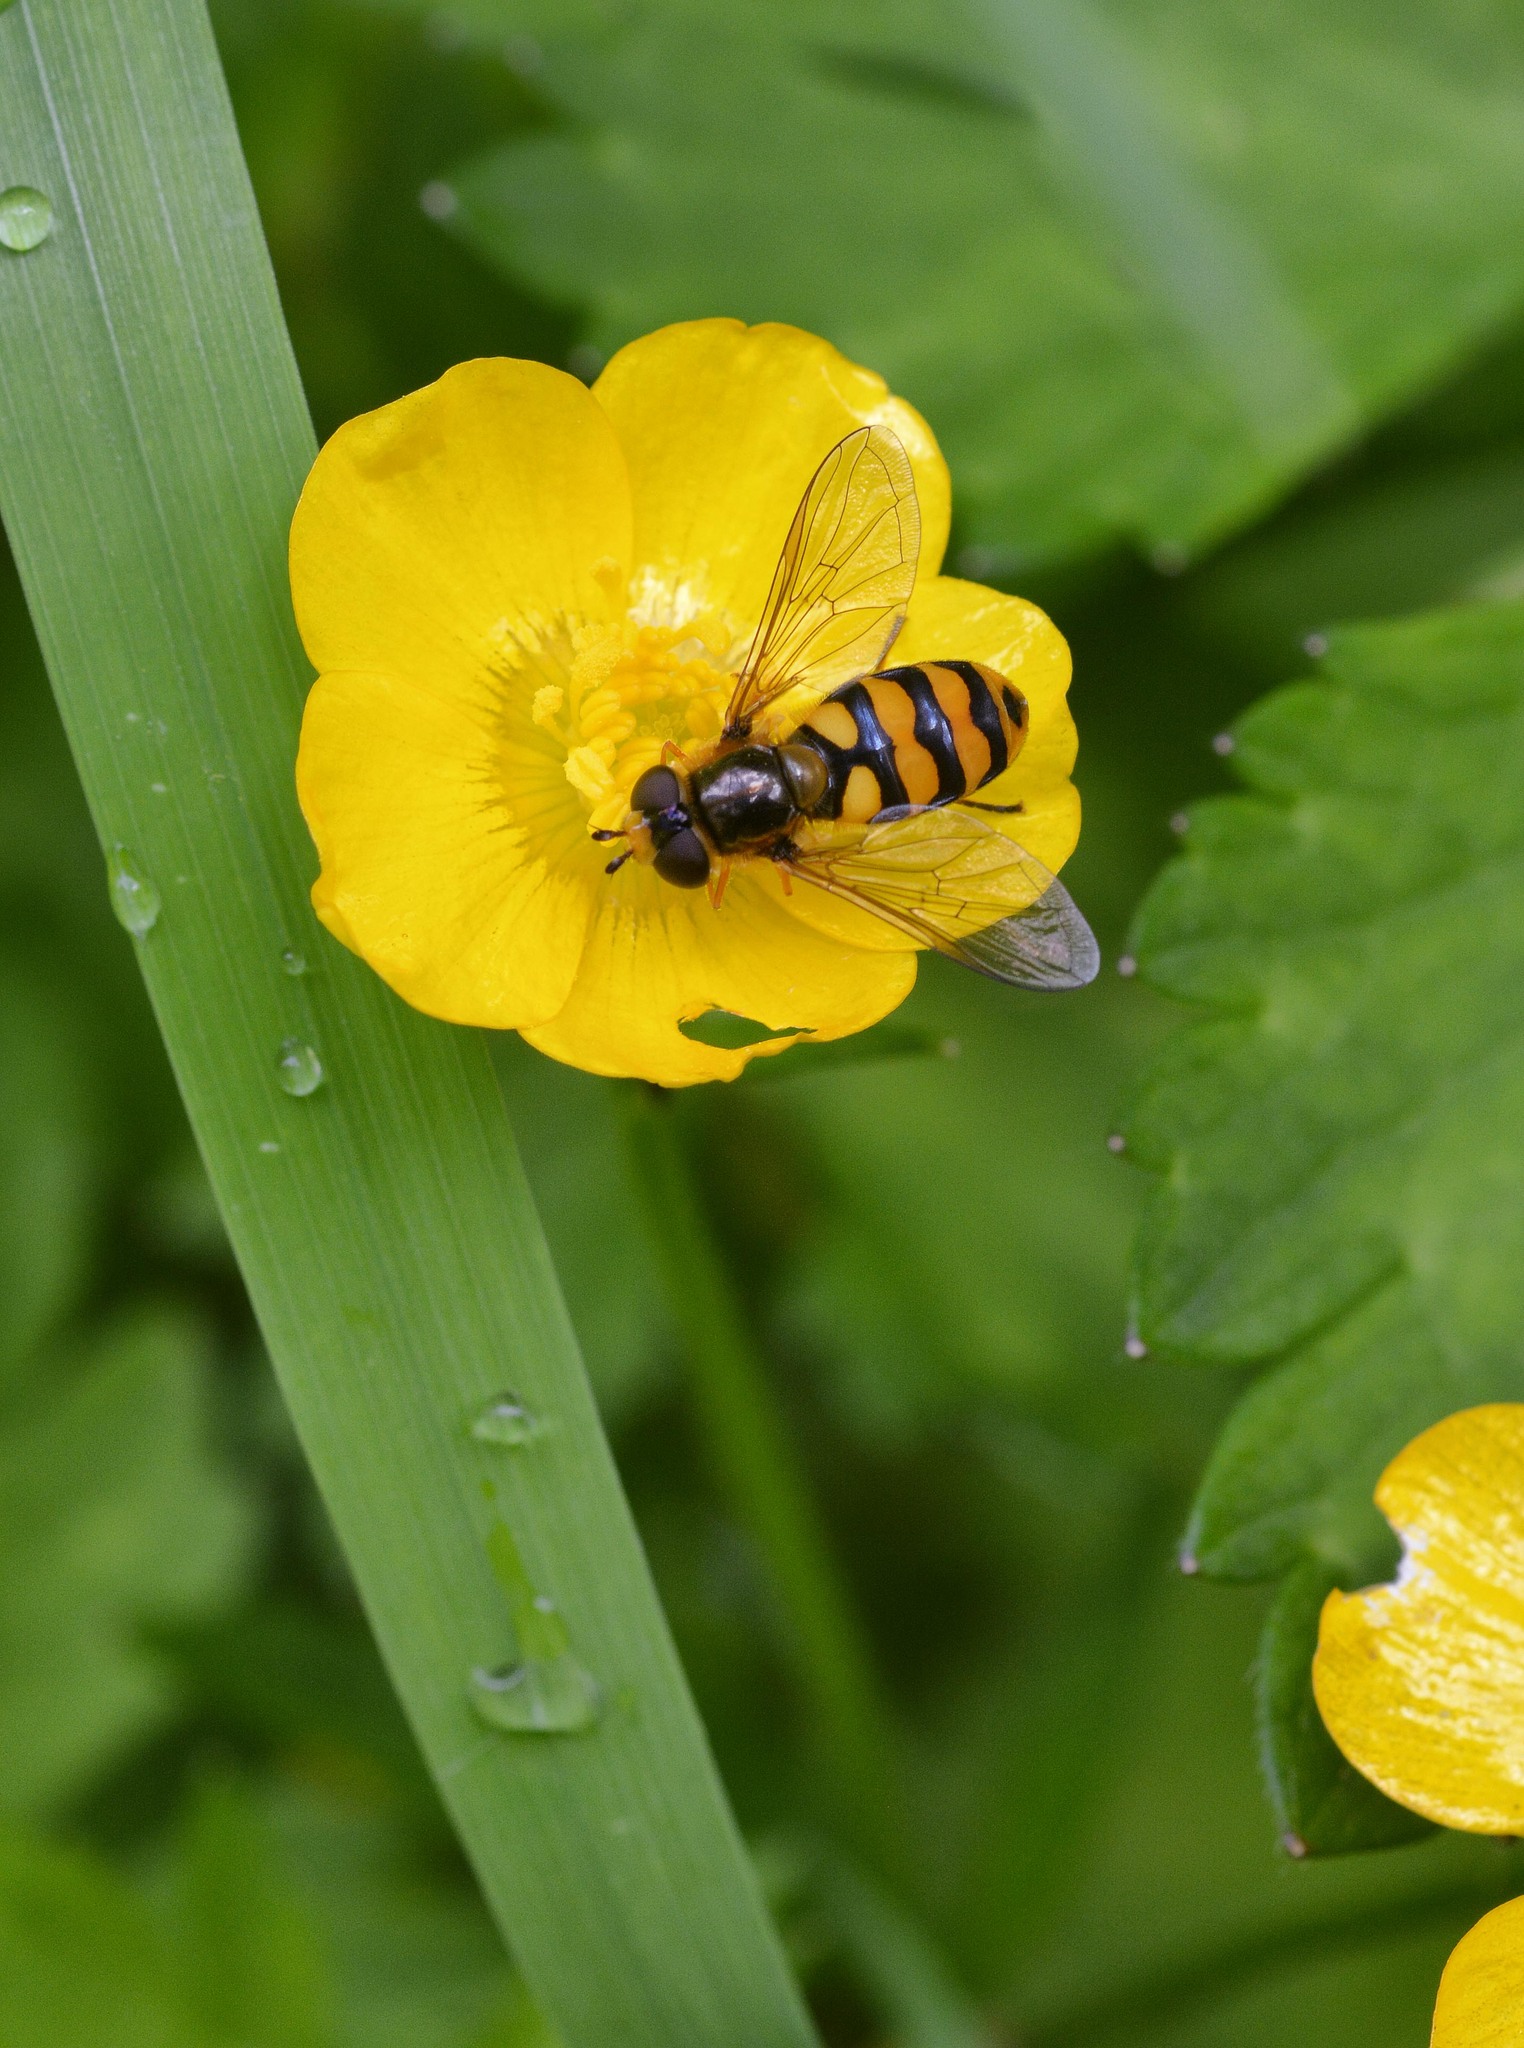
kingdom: Animalia
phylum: Arthropoda
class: Insecta
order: Diptera
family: Syrphidae
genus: Eupeodes
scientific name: Eupeodes latifasciatus
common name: Variable aphideater
